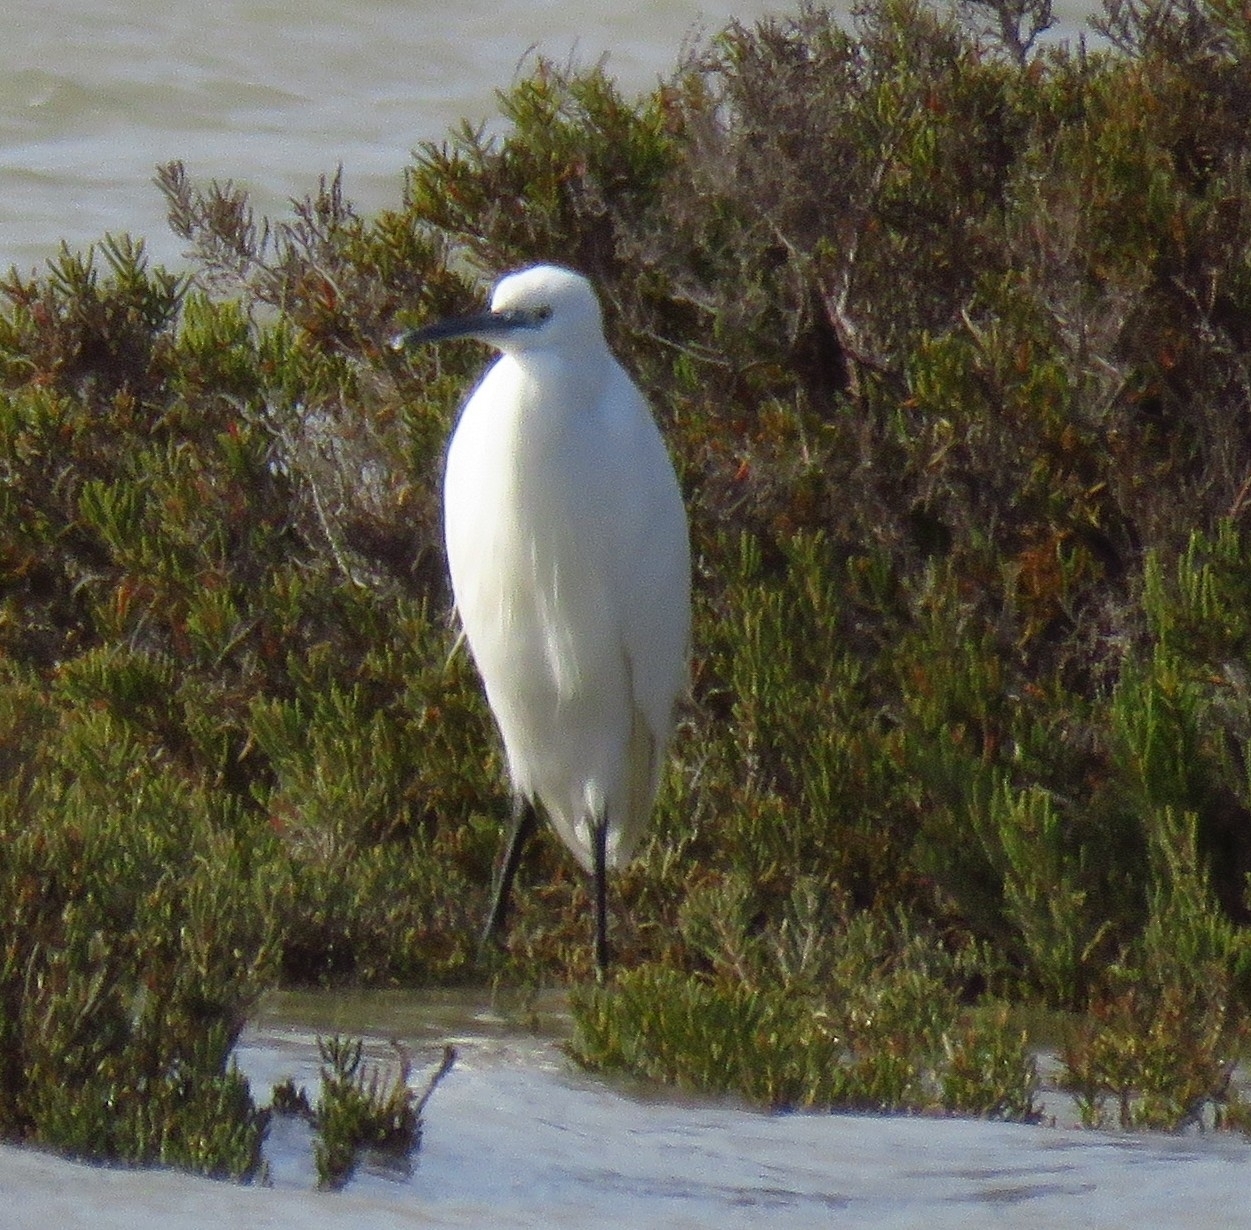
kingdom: Animalia
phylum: Chordata
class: Aves
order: Pelecaniformes
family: Ardeidae
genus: Egretta
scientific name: Egretta garzetta
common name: Little egret
